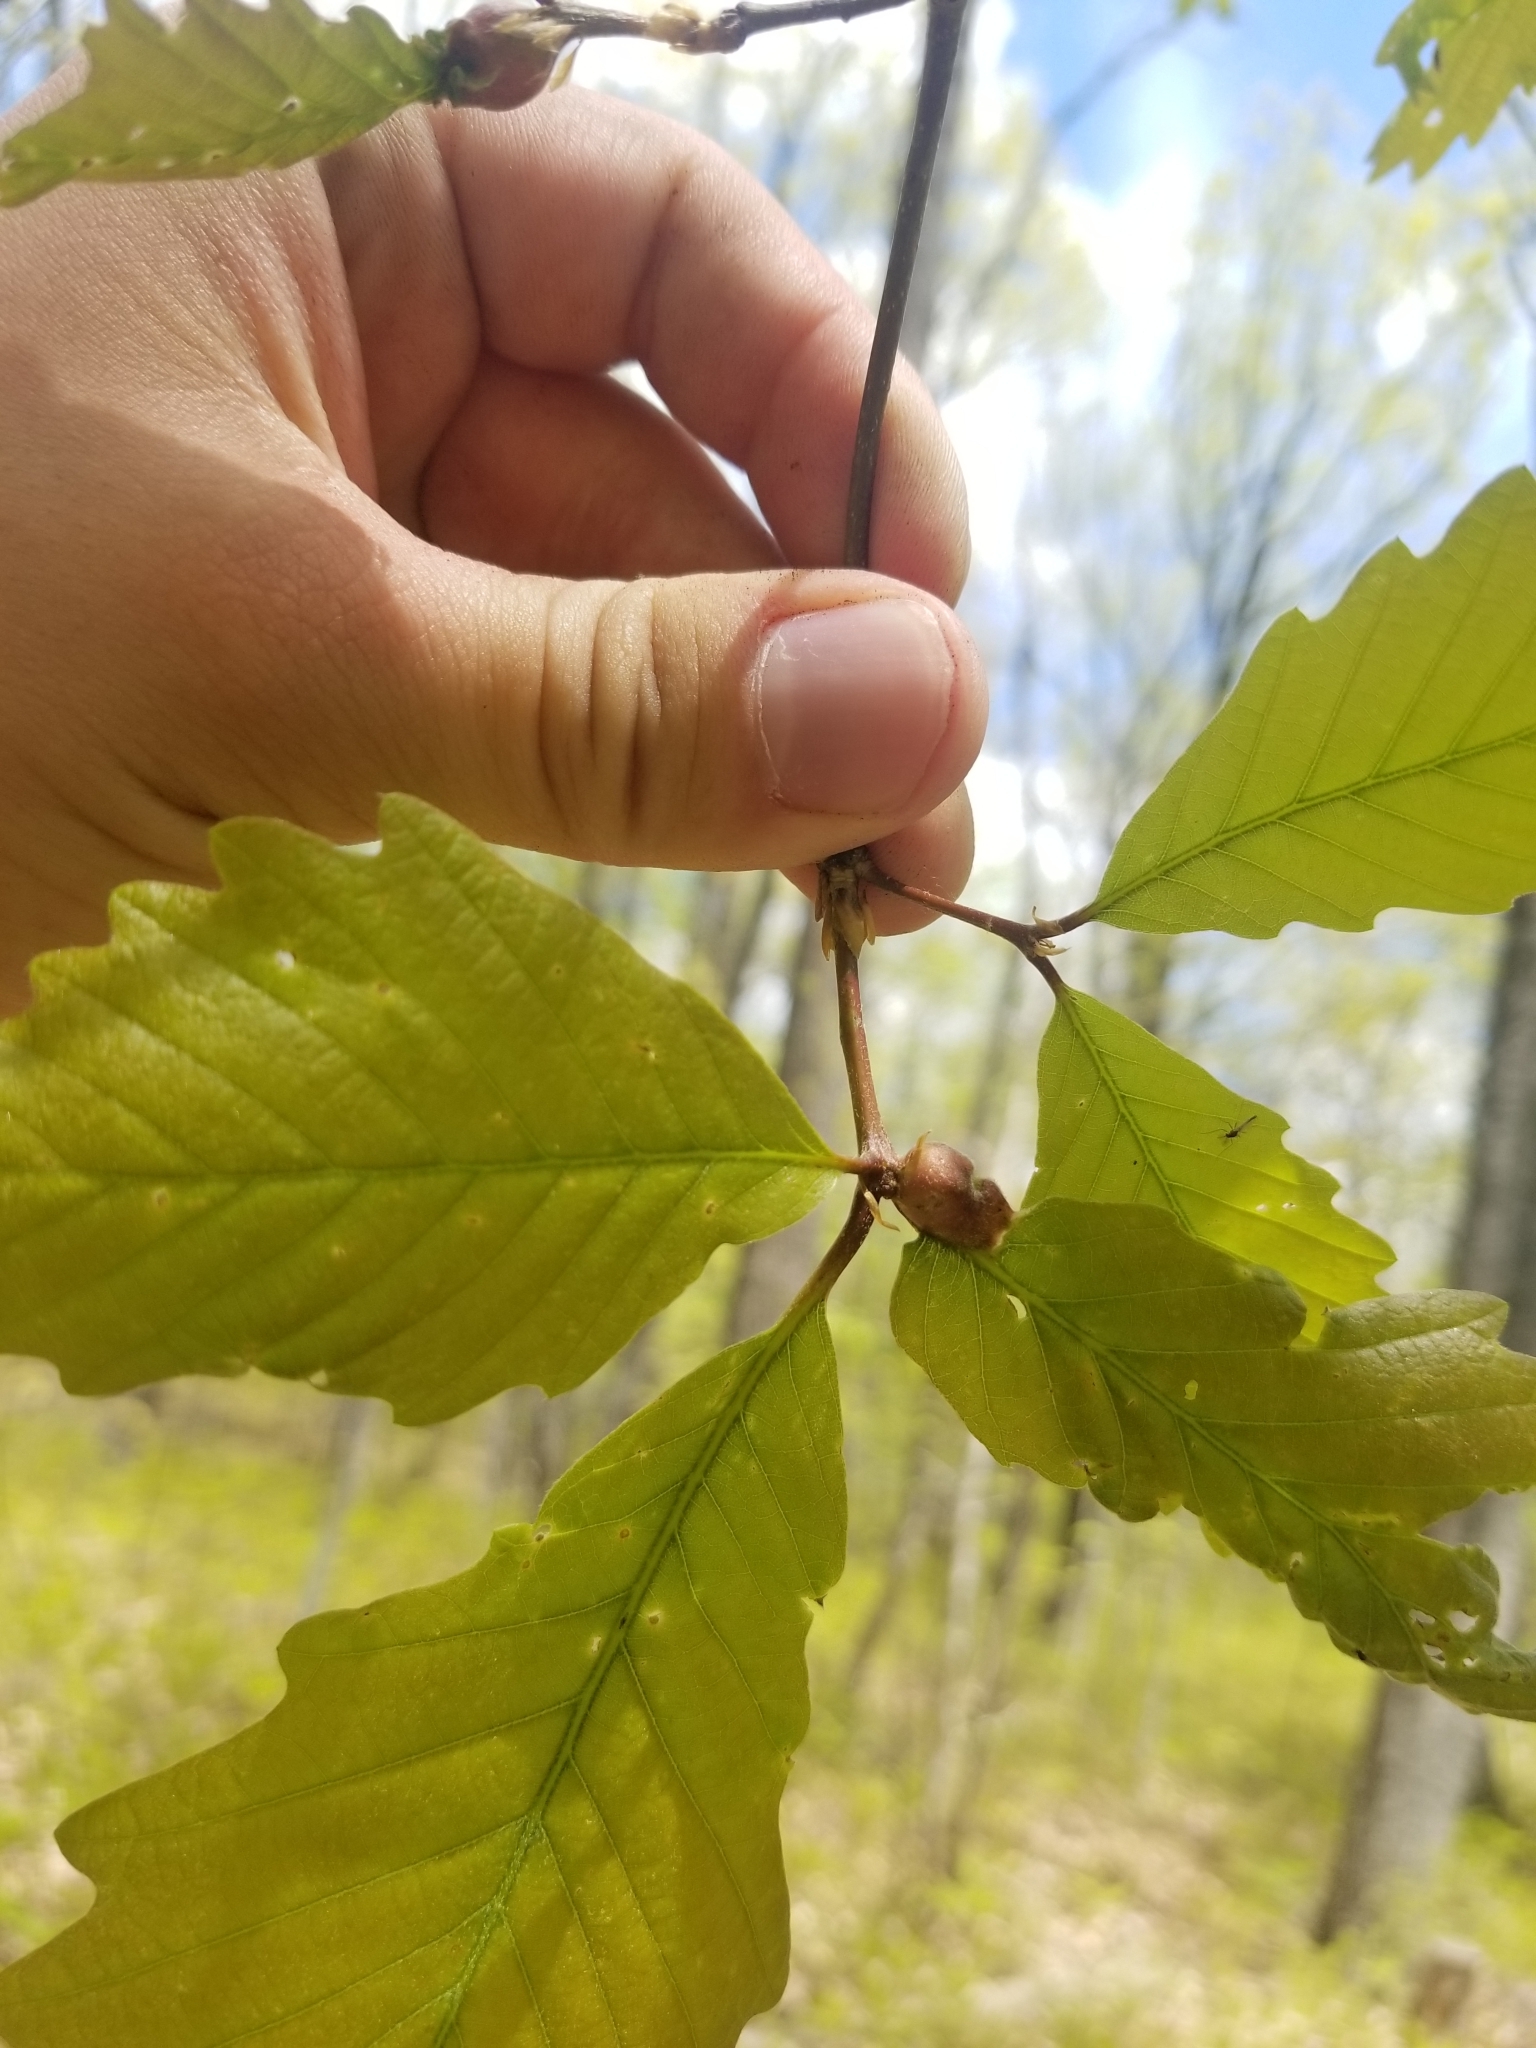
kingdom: Animalia
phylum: Arthropoda
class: Insecta
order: Hymenoptera
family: Cynipidae
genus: Andricus
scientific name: Andricus
